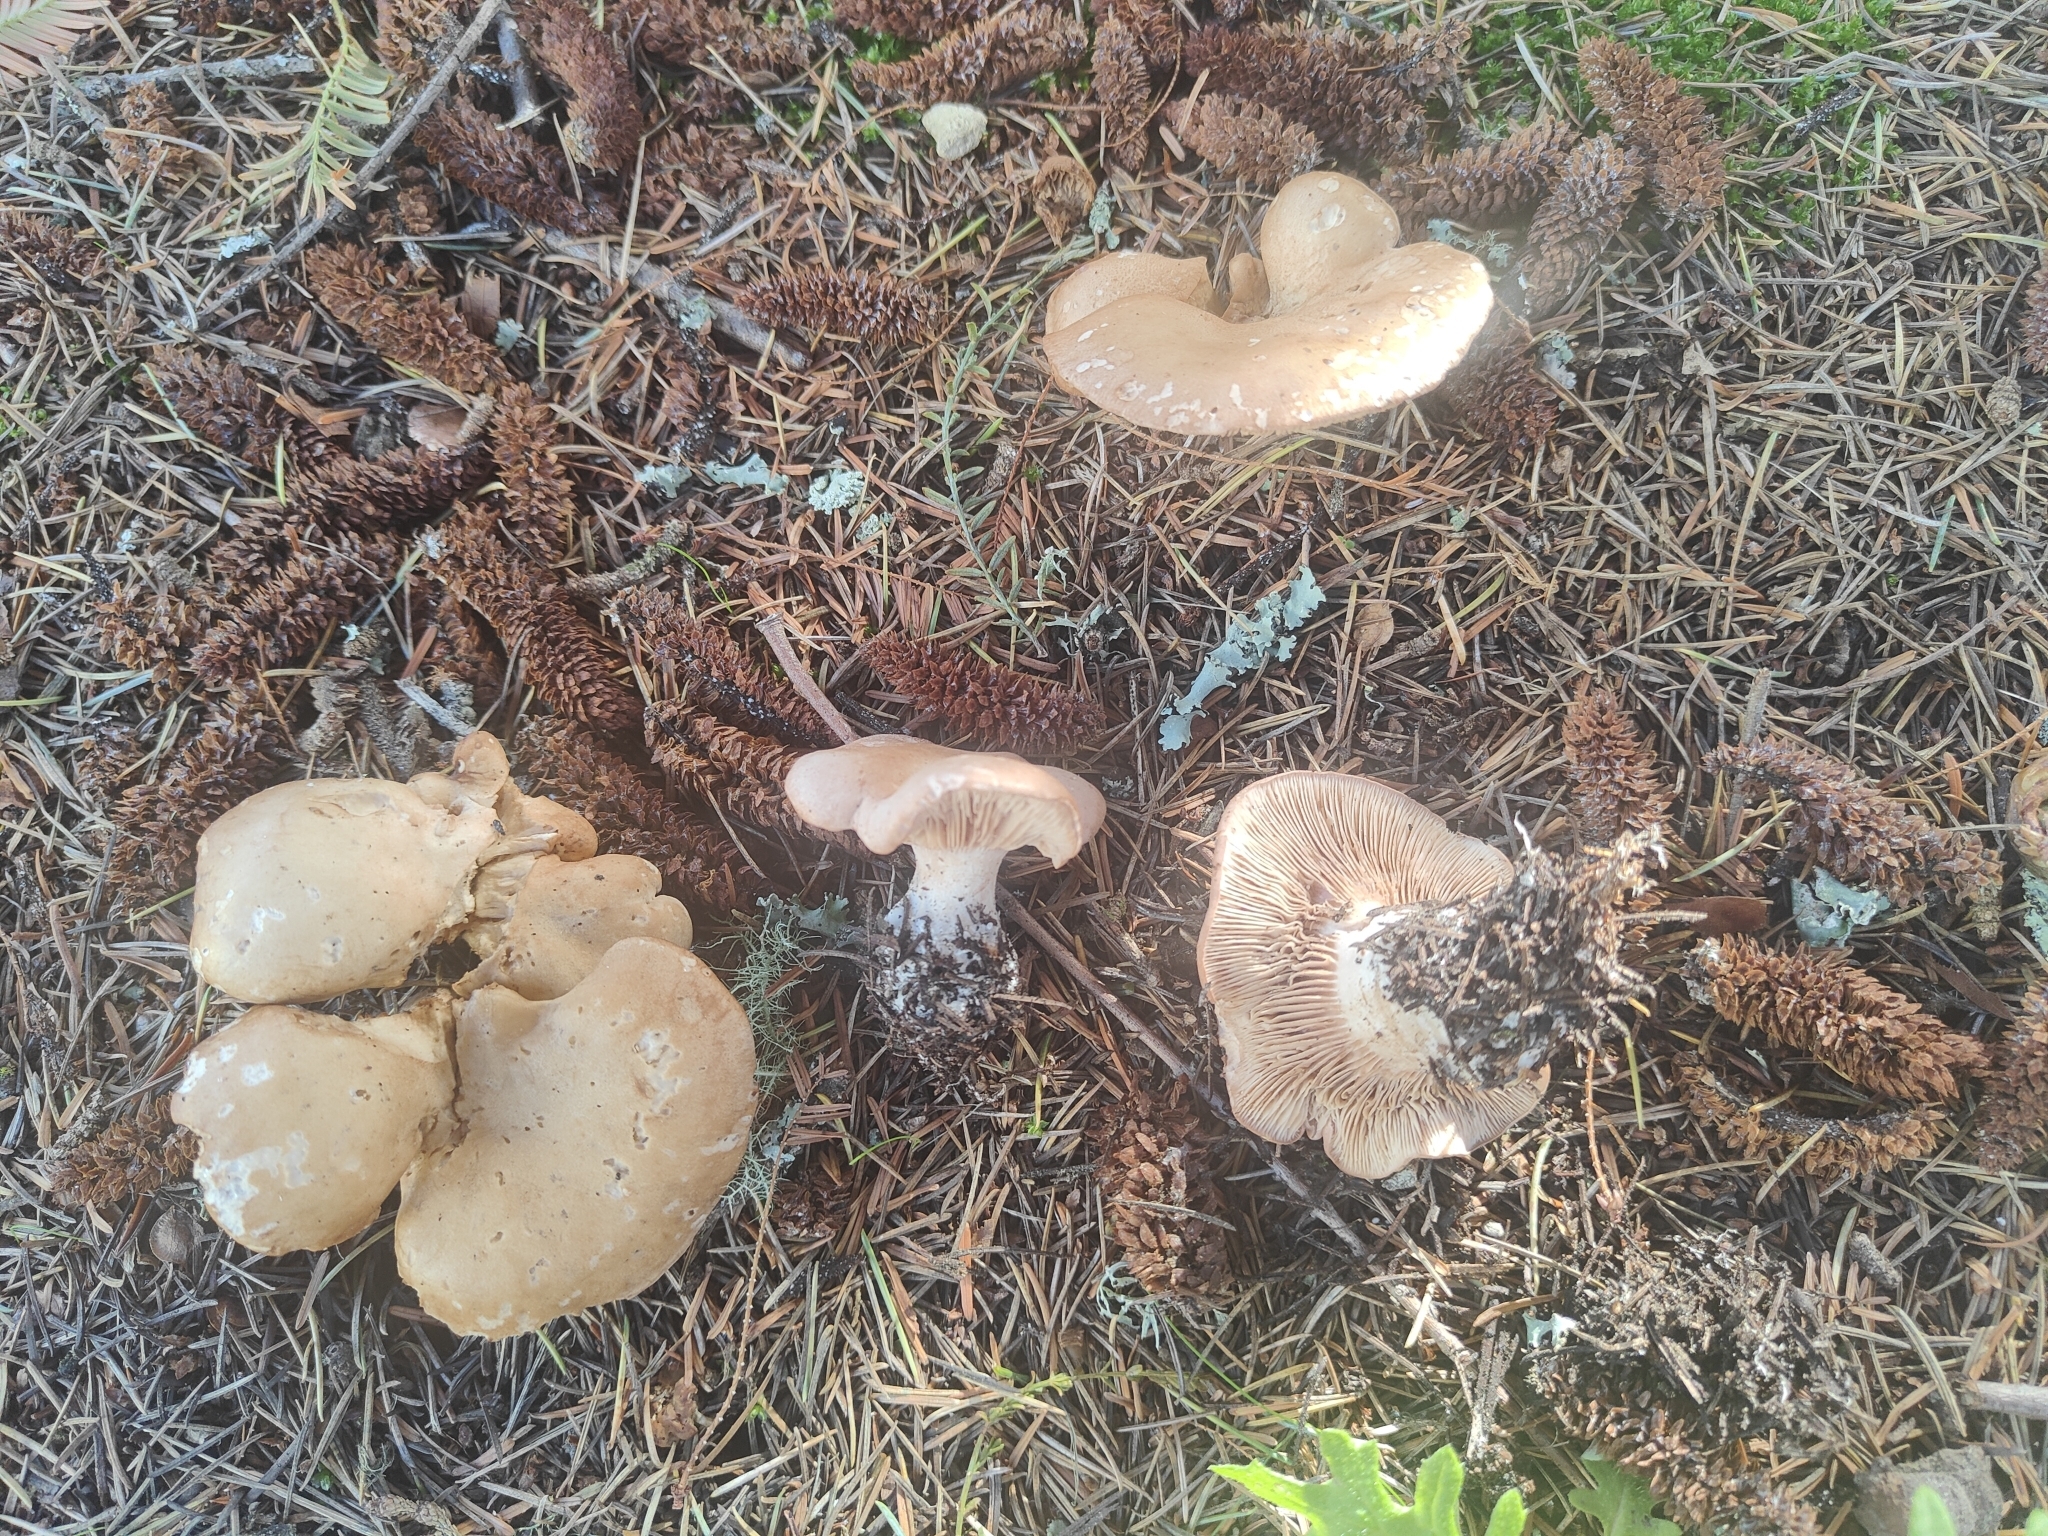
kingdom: Fungi
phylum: Basidiomycota
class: Agaricomycetes
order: Agaricales
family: Entolomataceae
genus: Clitopilus
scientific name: Clitopilus piperitus
